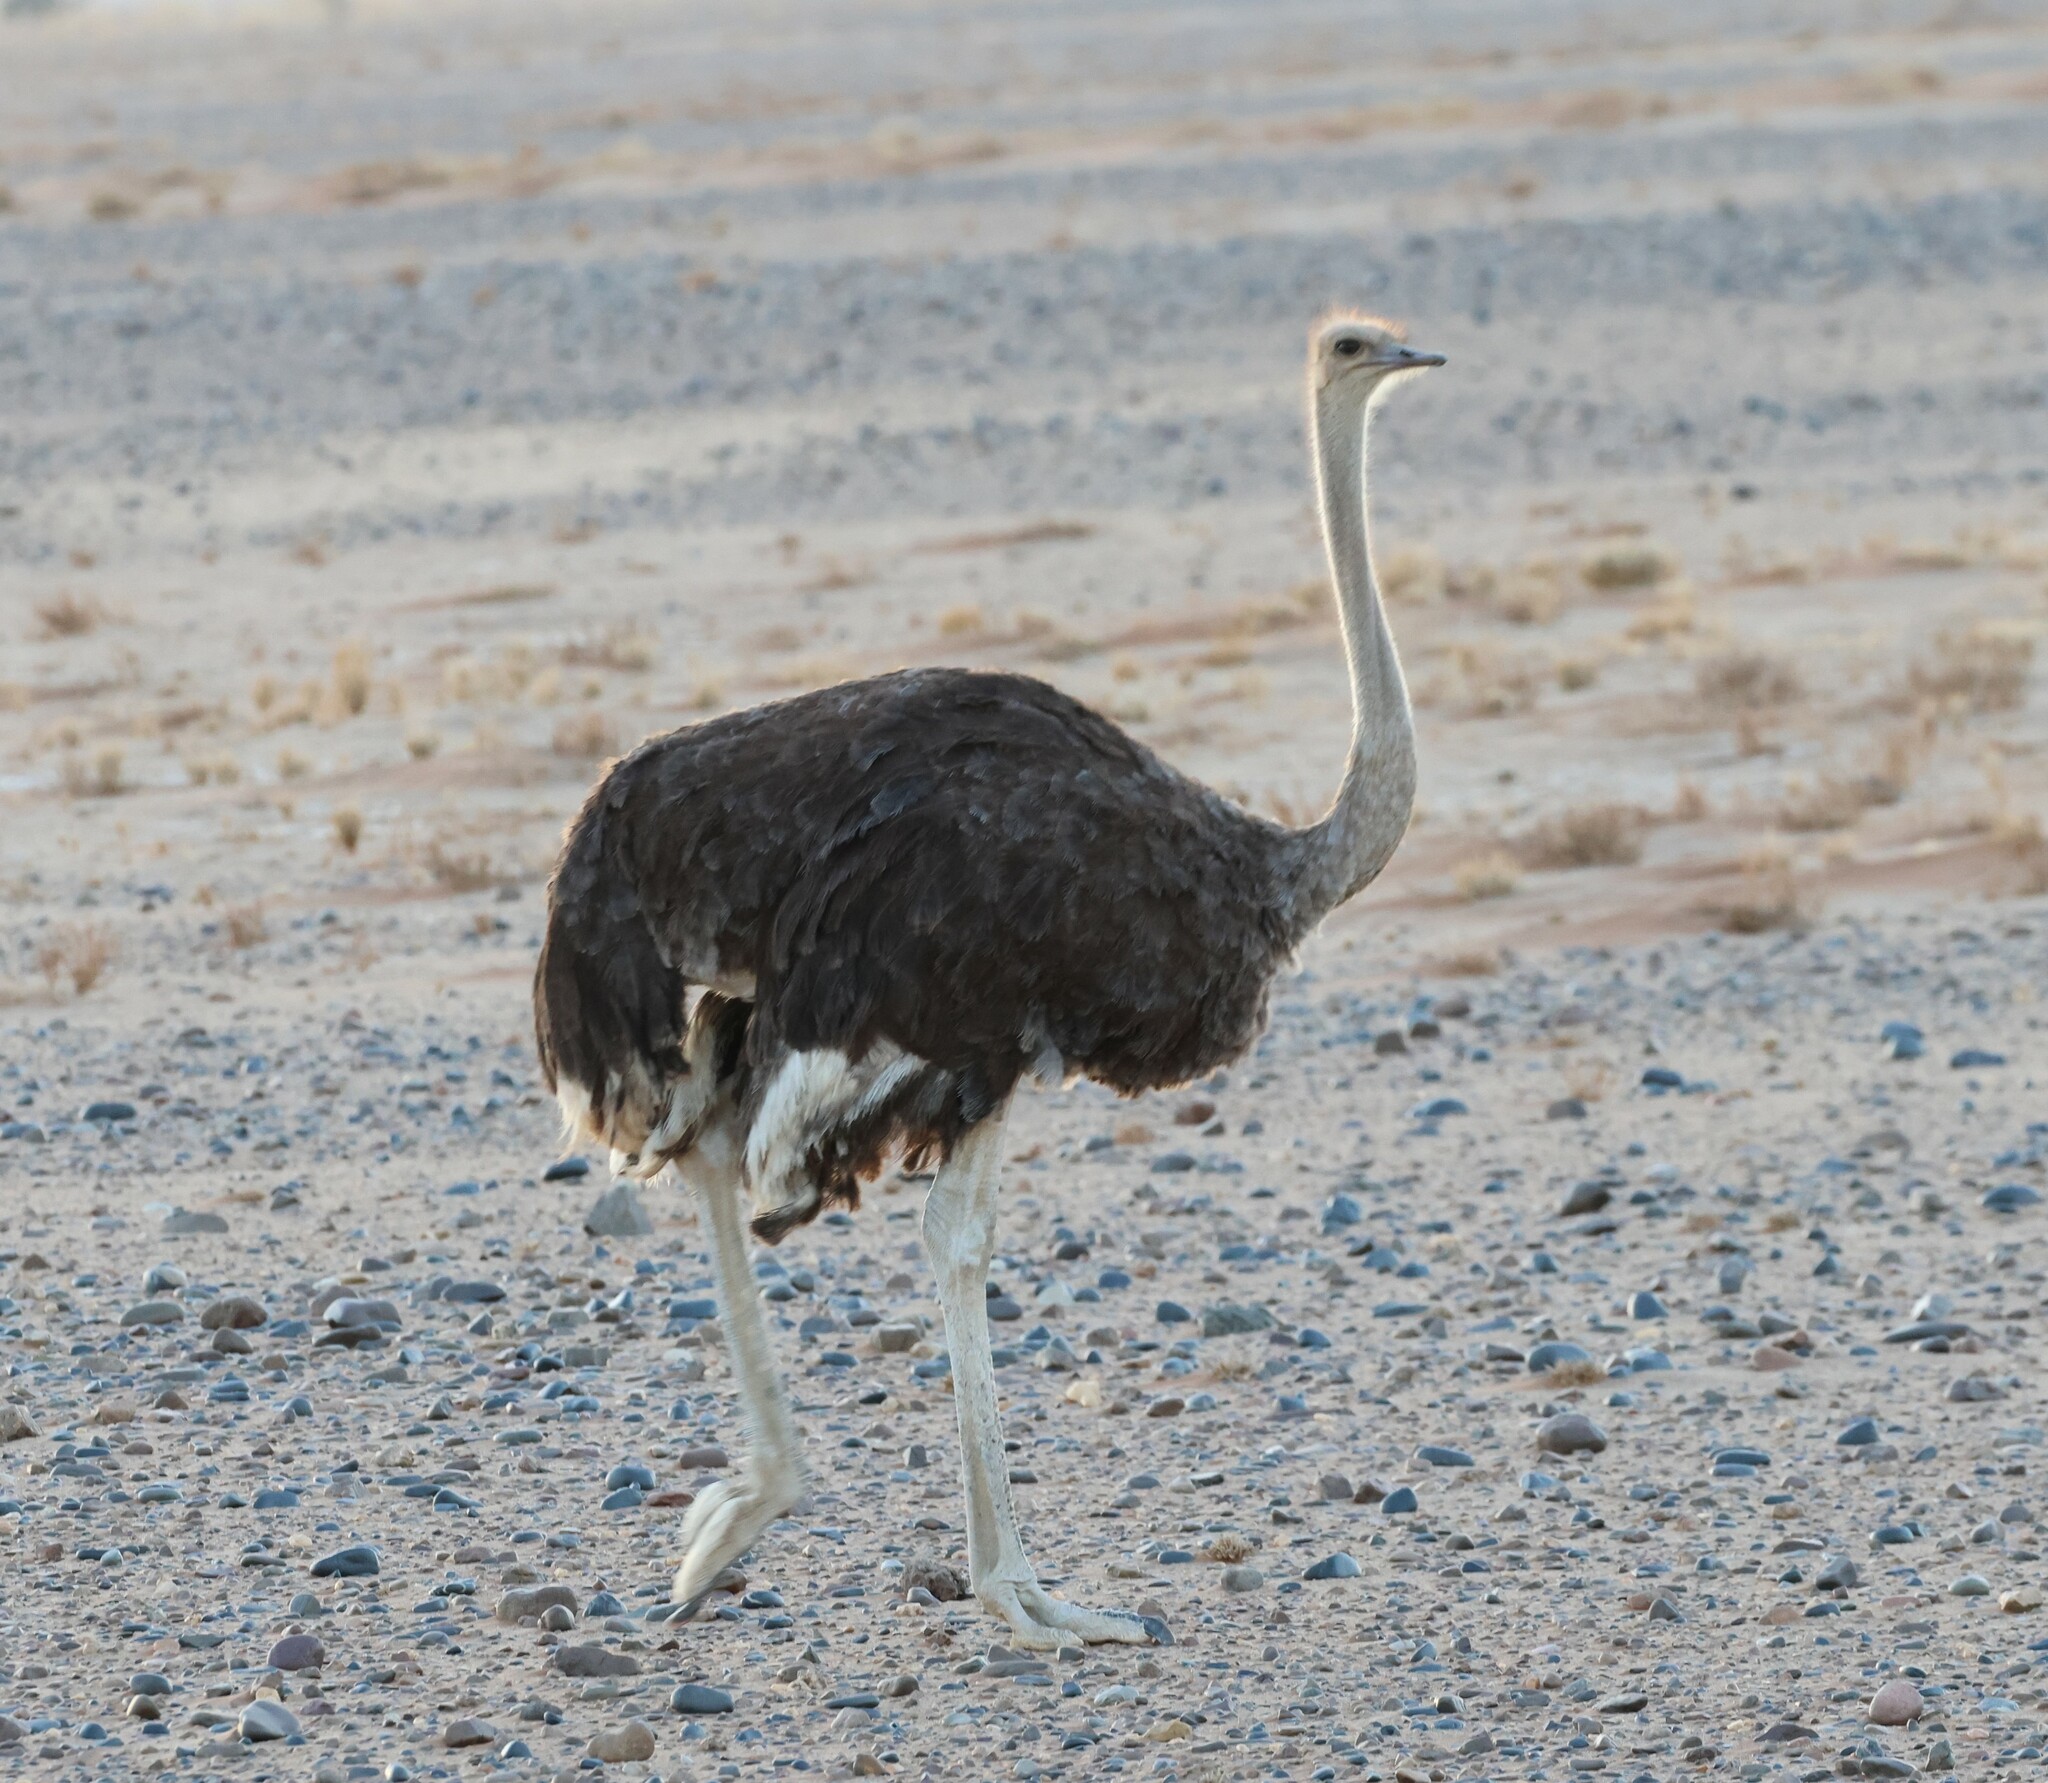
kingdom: Animalia
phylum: Chordata
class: Aves
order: Struthioniformes
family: Struthionidae
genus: Struthio
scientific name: Struthio camelus
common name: Common ostrich
